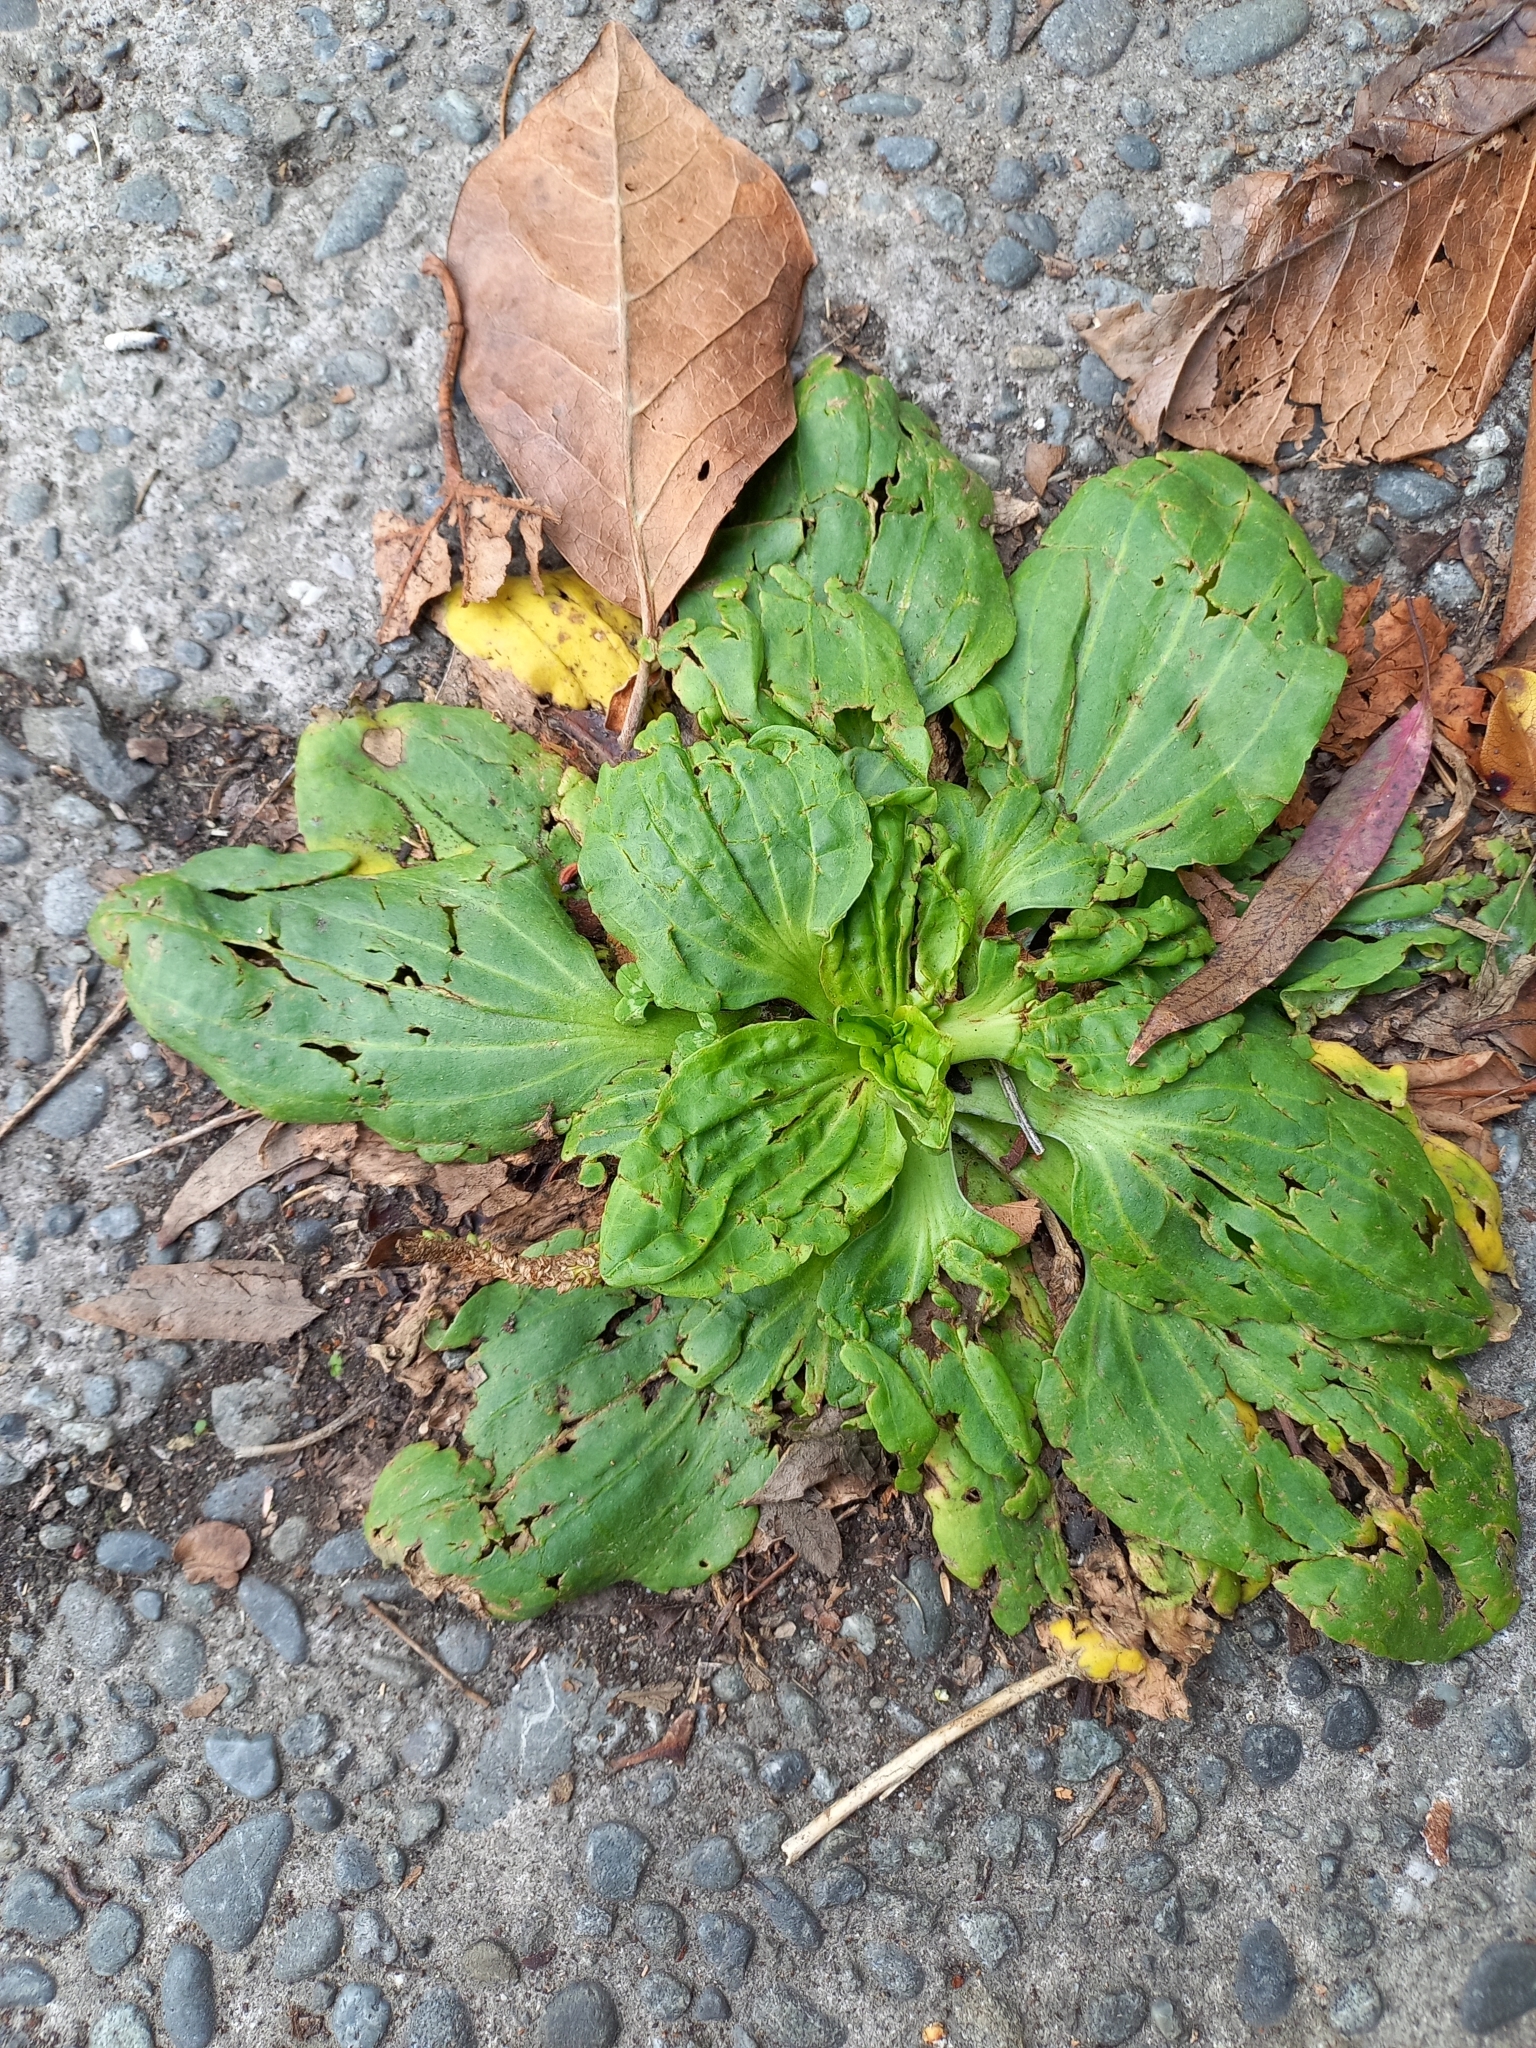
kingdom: Plantae
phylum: Tracheophyta
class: Magnoliopsida
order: Lamiales
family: Plantaginaceae
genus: Plantago
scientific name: Plantago major
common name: Common plantain
